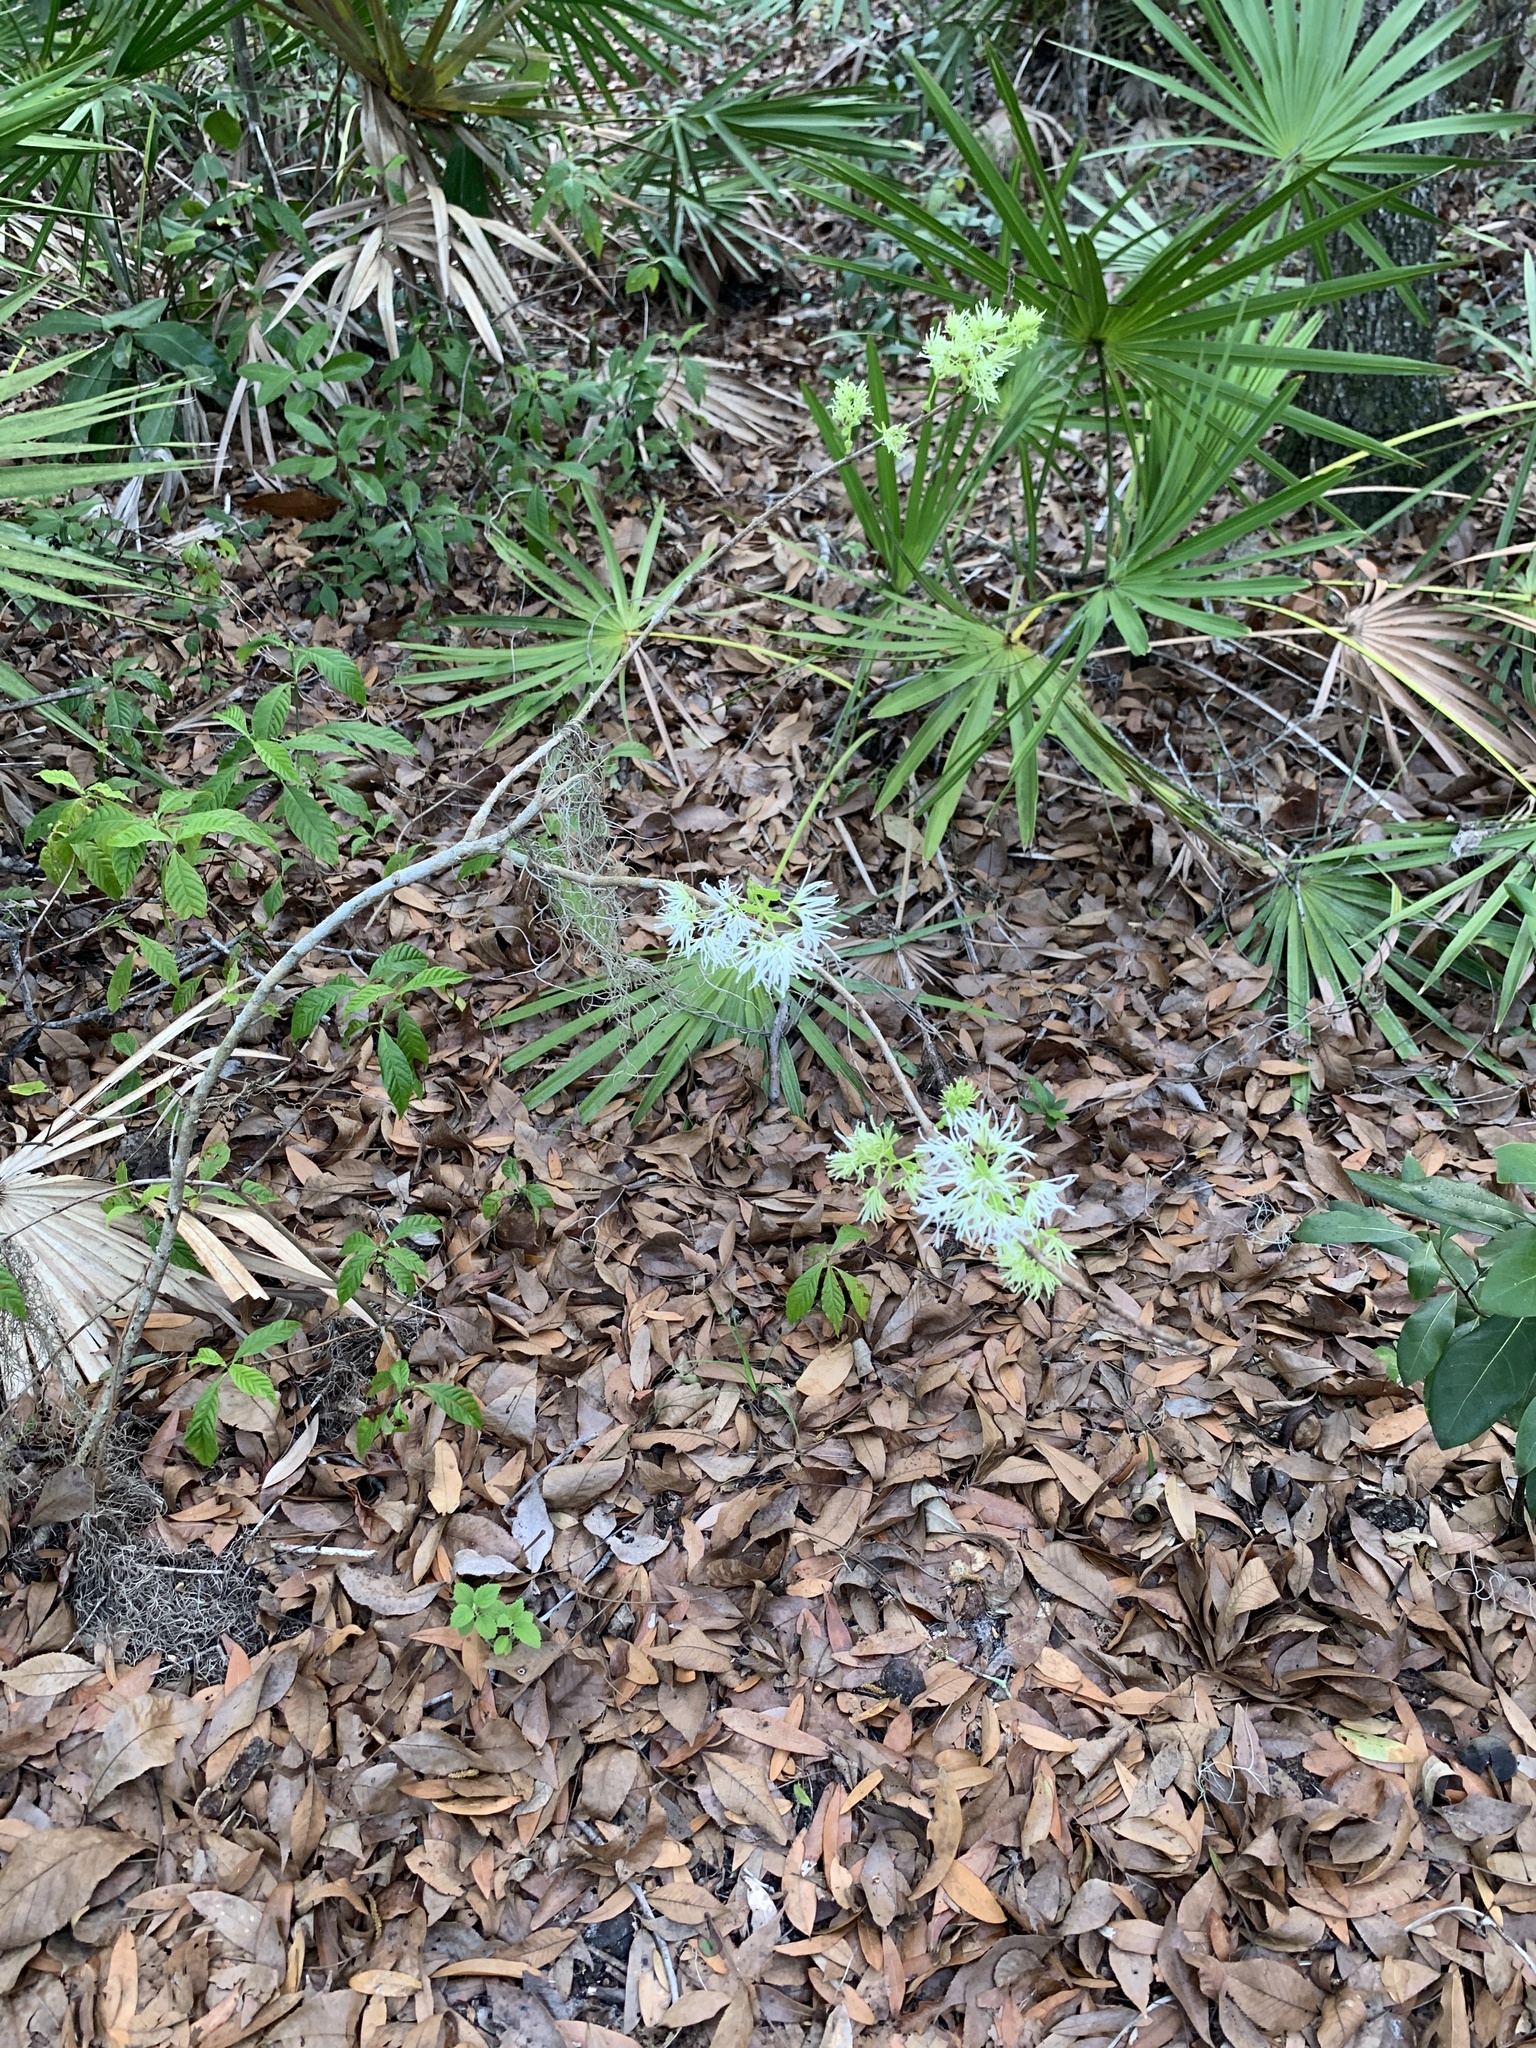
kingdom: Plantae
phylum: Tracheophyta
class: Magnoliopsida
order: Lamiales
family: Oleaceae
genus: Chionanthus
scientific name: Chionanthus virginicus
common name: American fringetree
